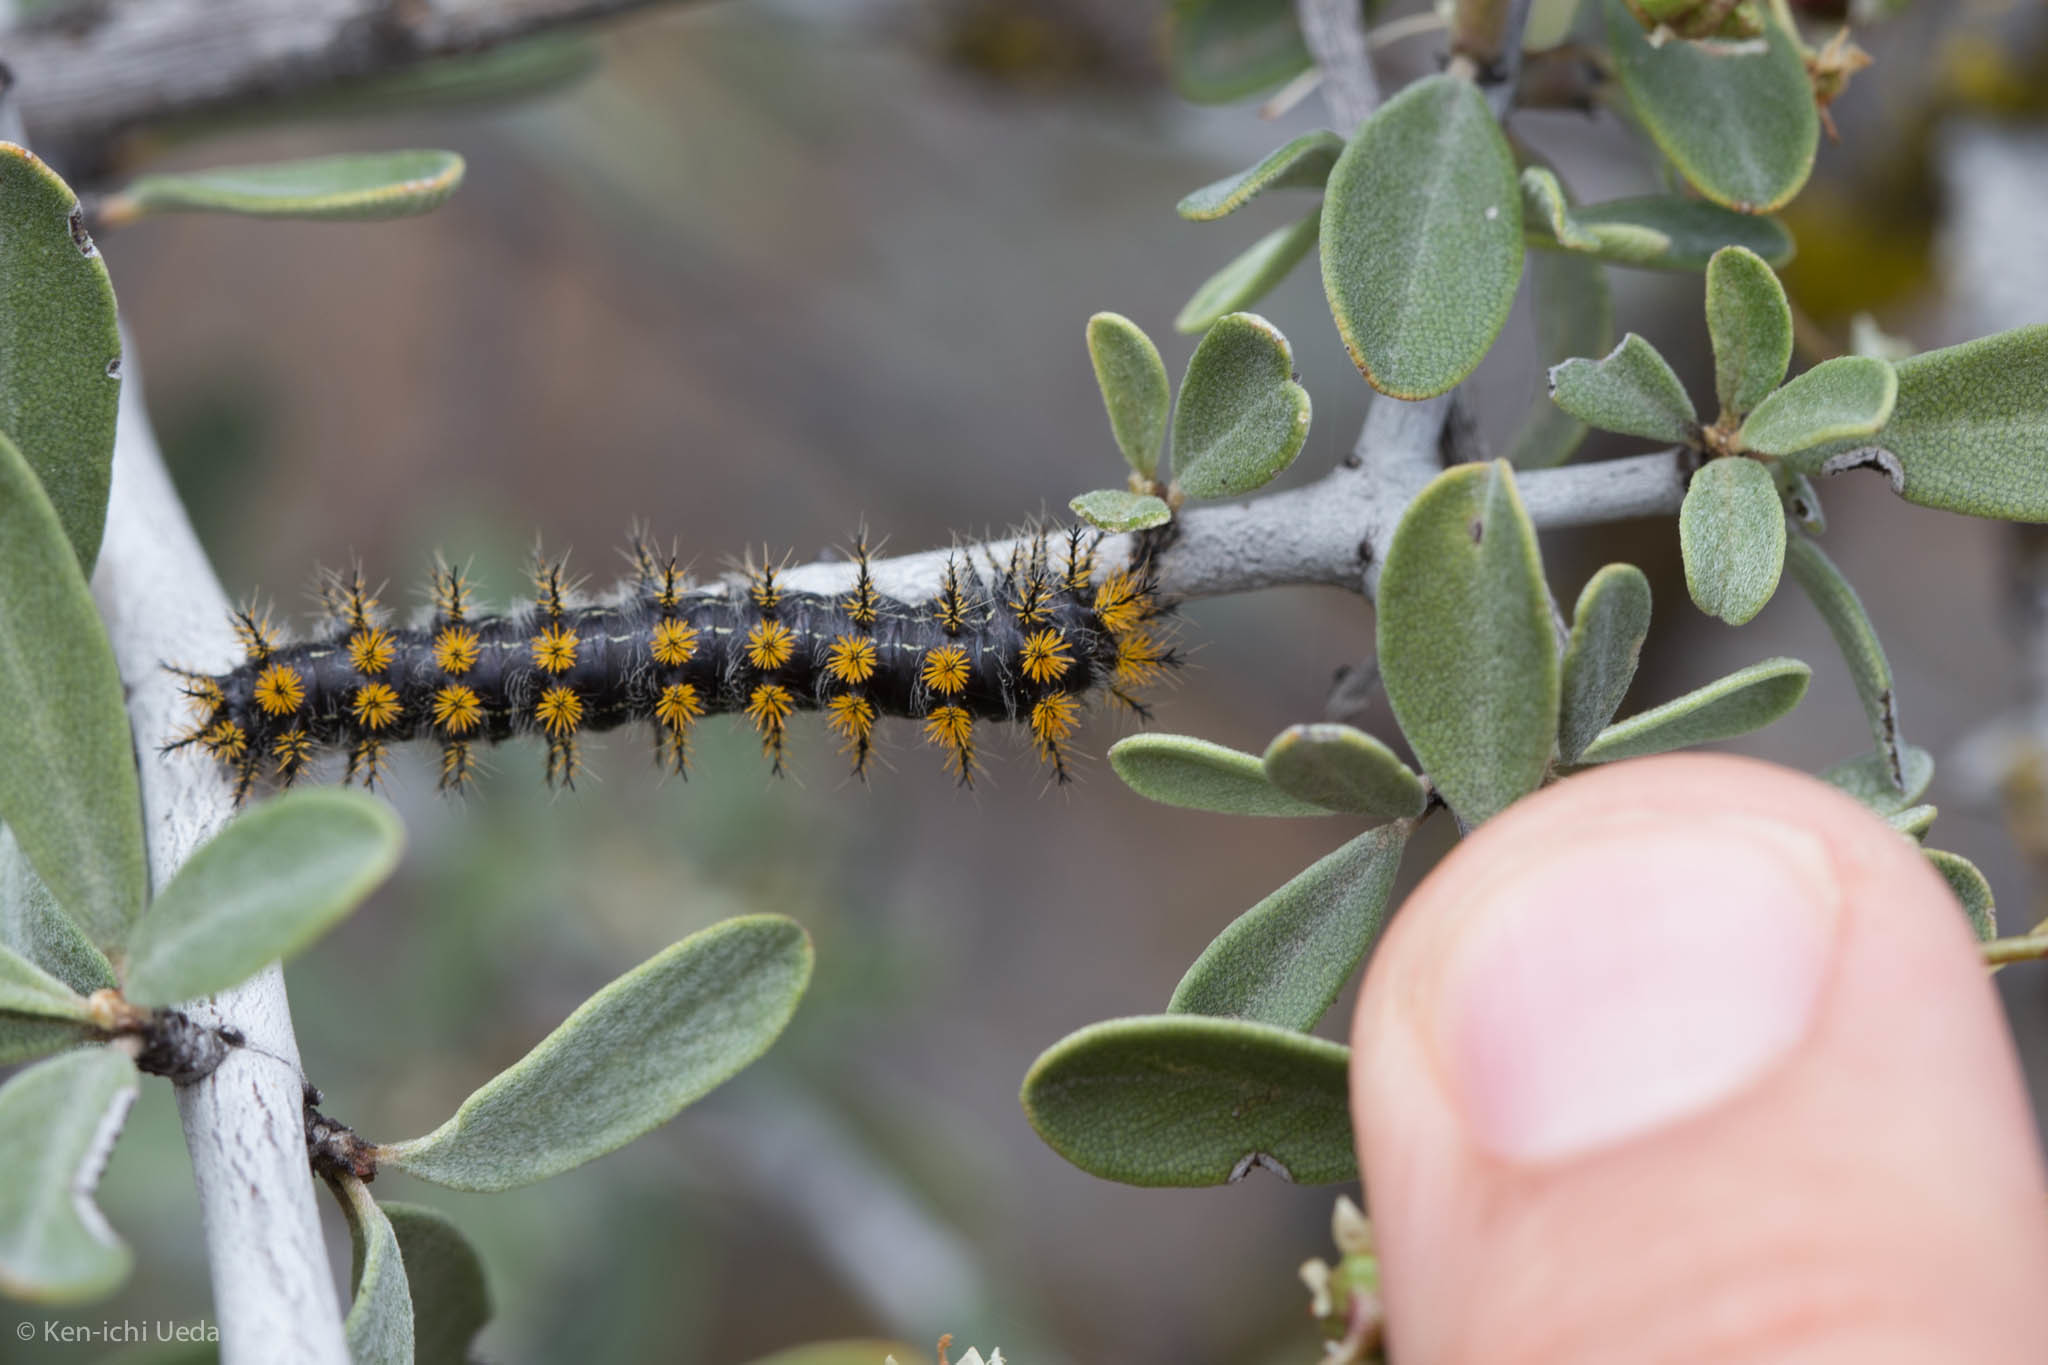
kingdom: Animalia
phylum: Arthropoda
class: Insecta
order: Lepidoptera
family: Saturniidae
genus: Hemileuca
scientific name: Hemileuca eglanterina
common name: Western sheepmoth
